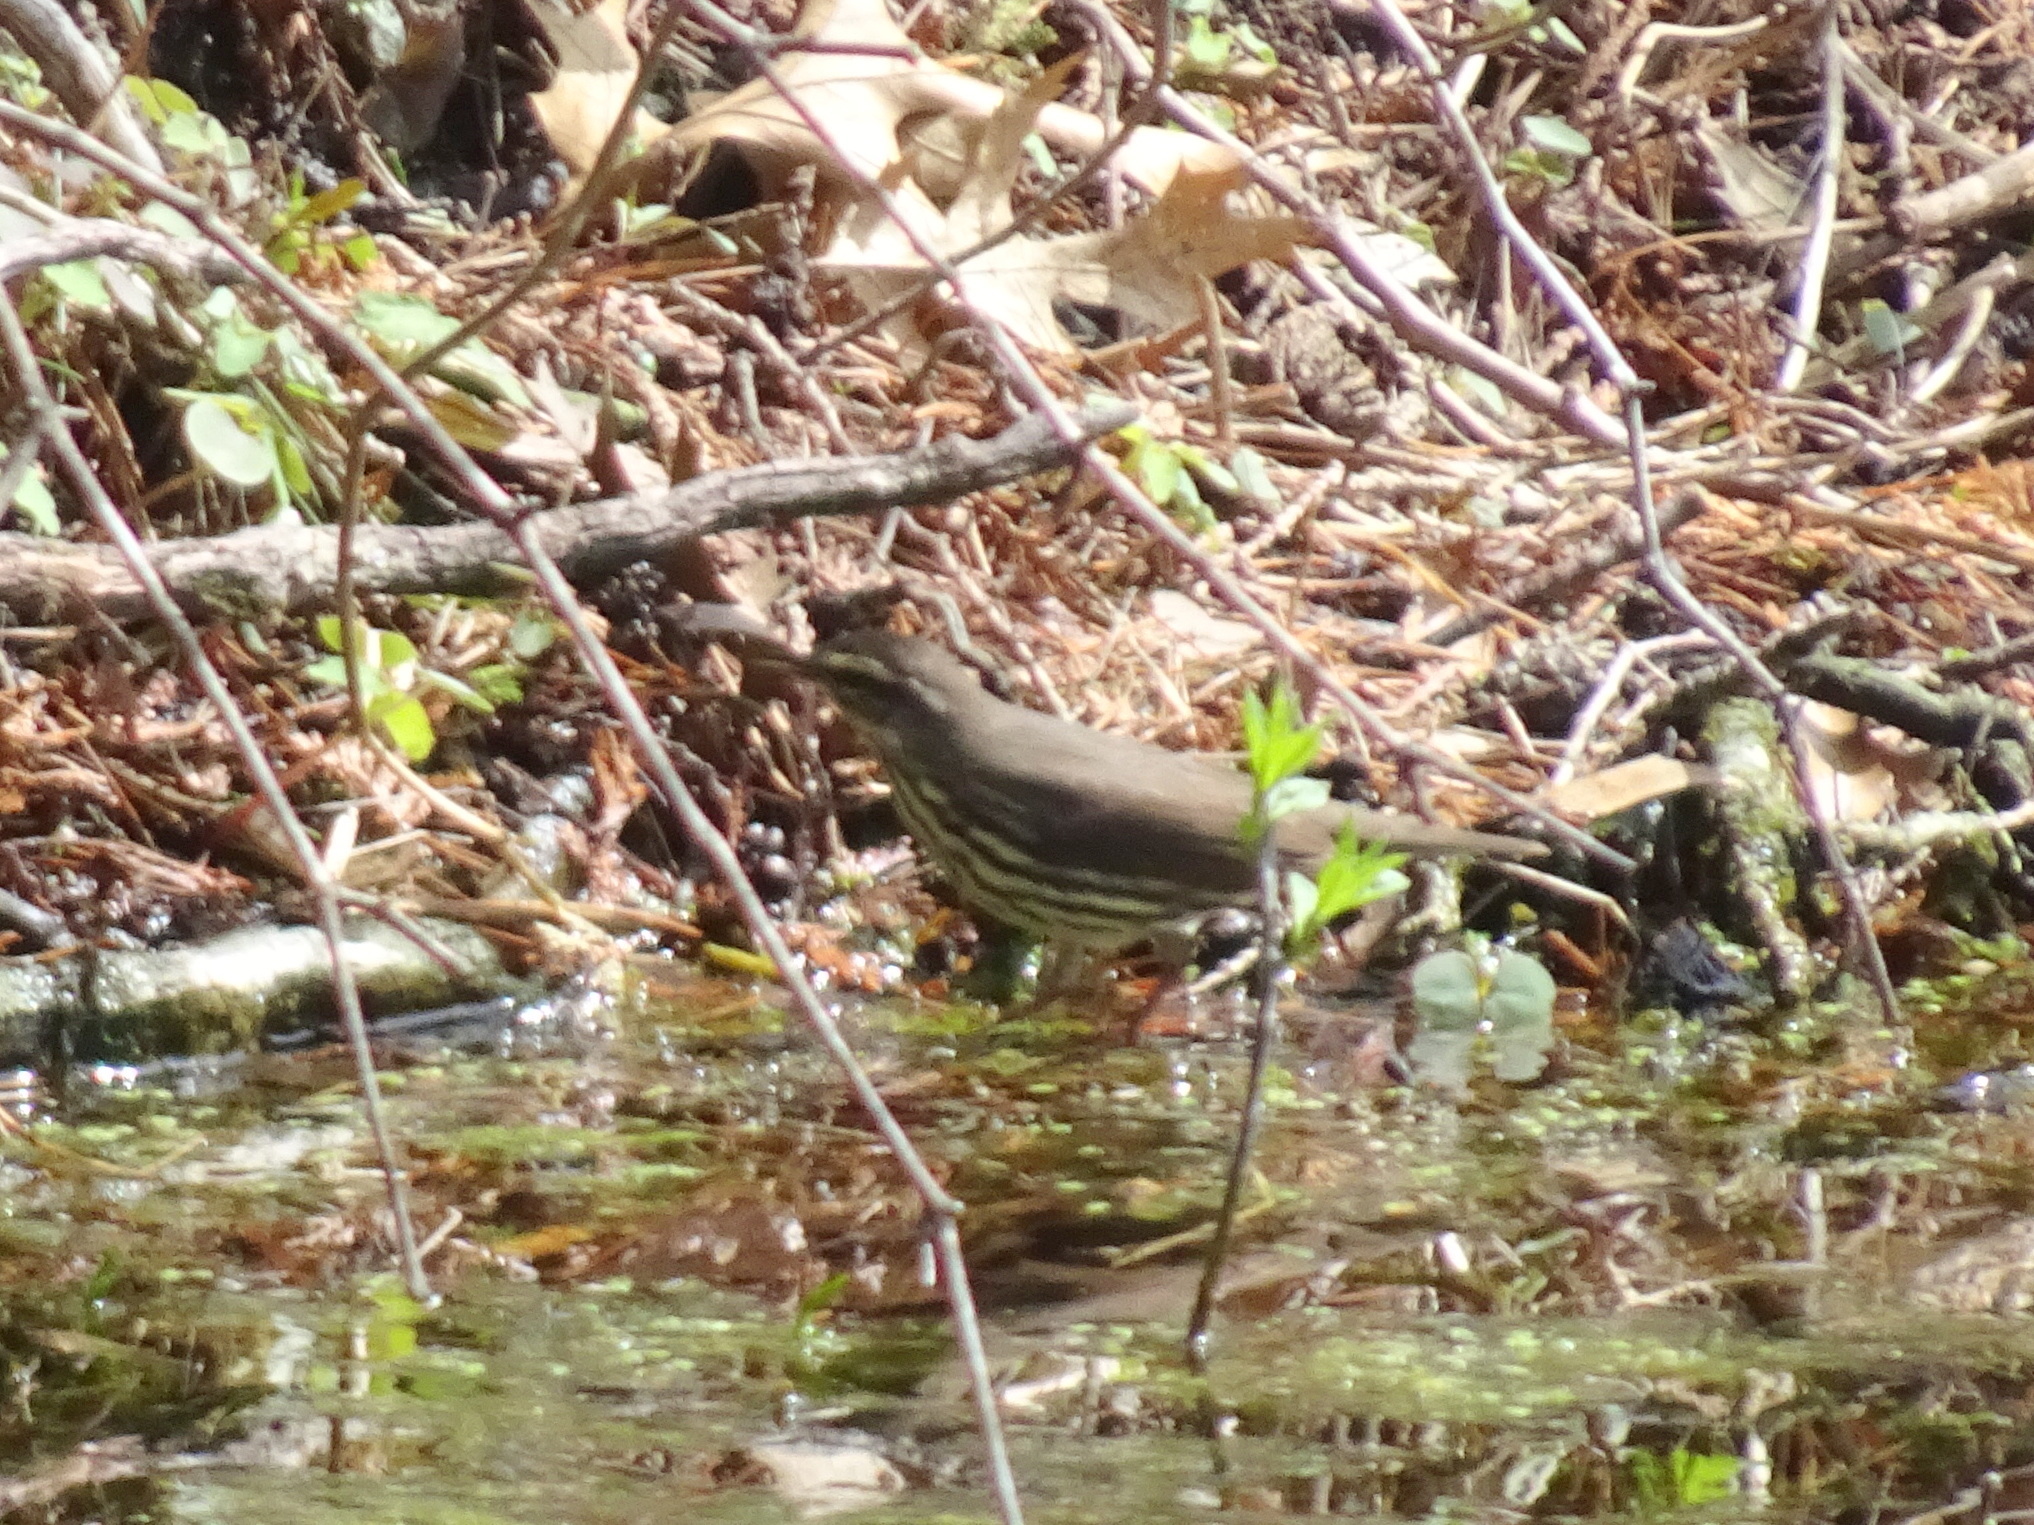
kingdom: Animalia
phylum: Chordata
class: Aves
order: Passeriformes
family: Parulidae
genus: Parkesia
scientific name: Parkesia noveboracensis
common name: Northern waterthrush
